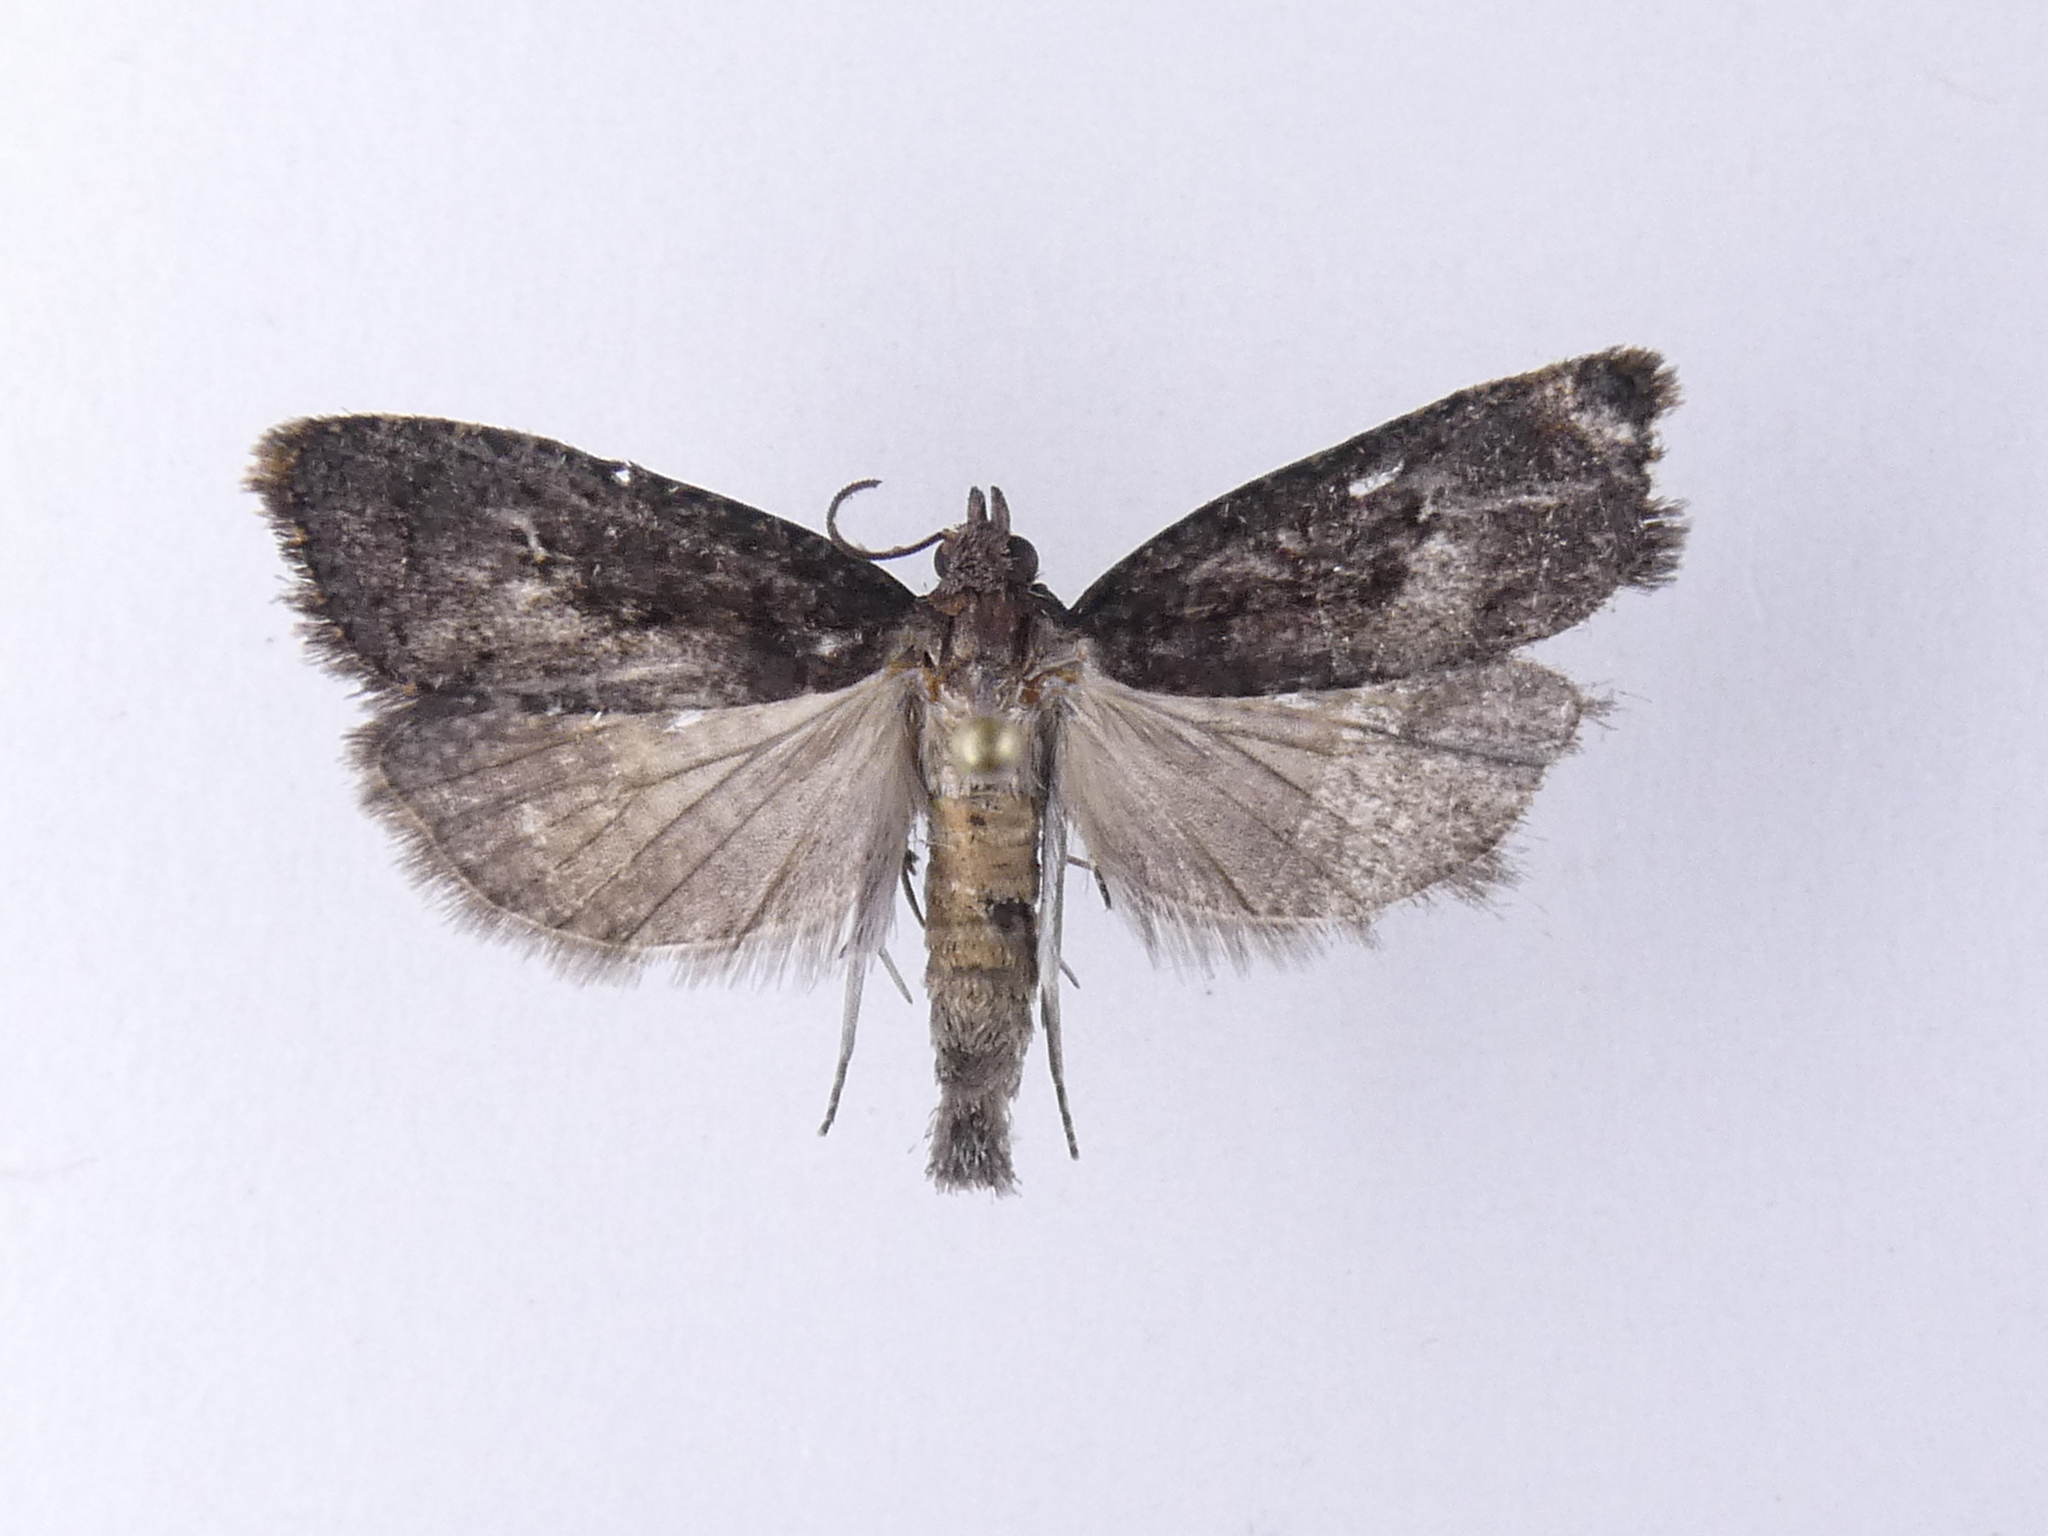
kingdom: Animalia
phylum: Arthropoda
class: Insecta
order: Lepidoptera
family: Tortricidae
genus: Cryptaspasma
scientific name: Cryptaspasma querula
